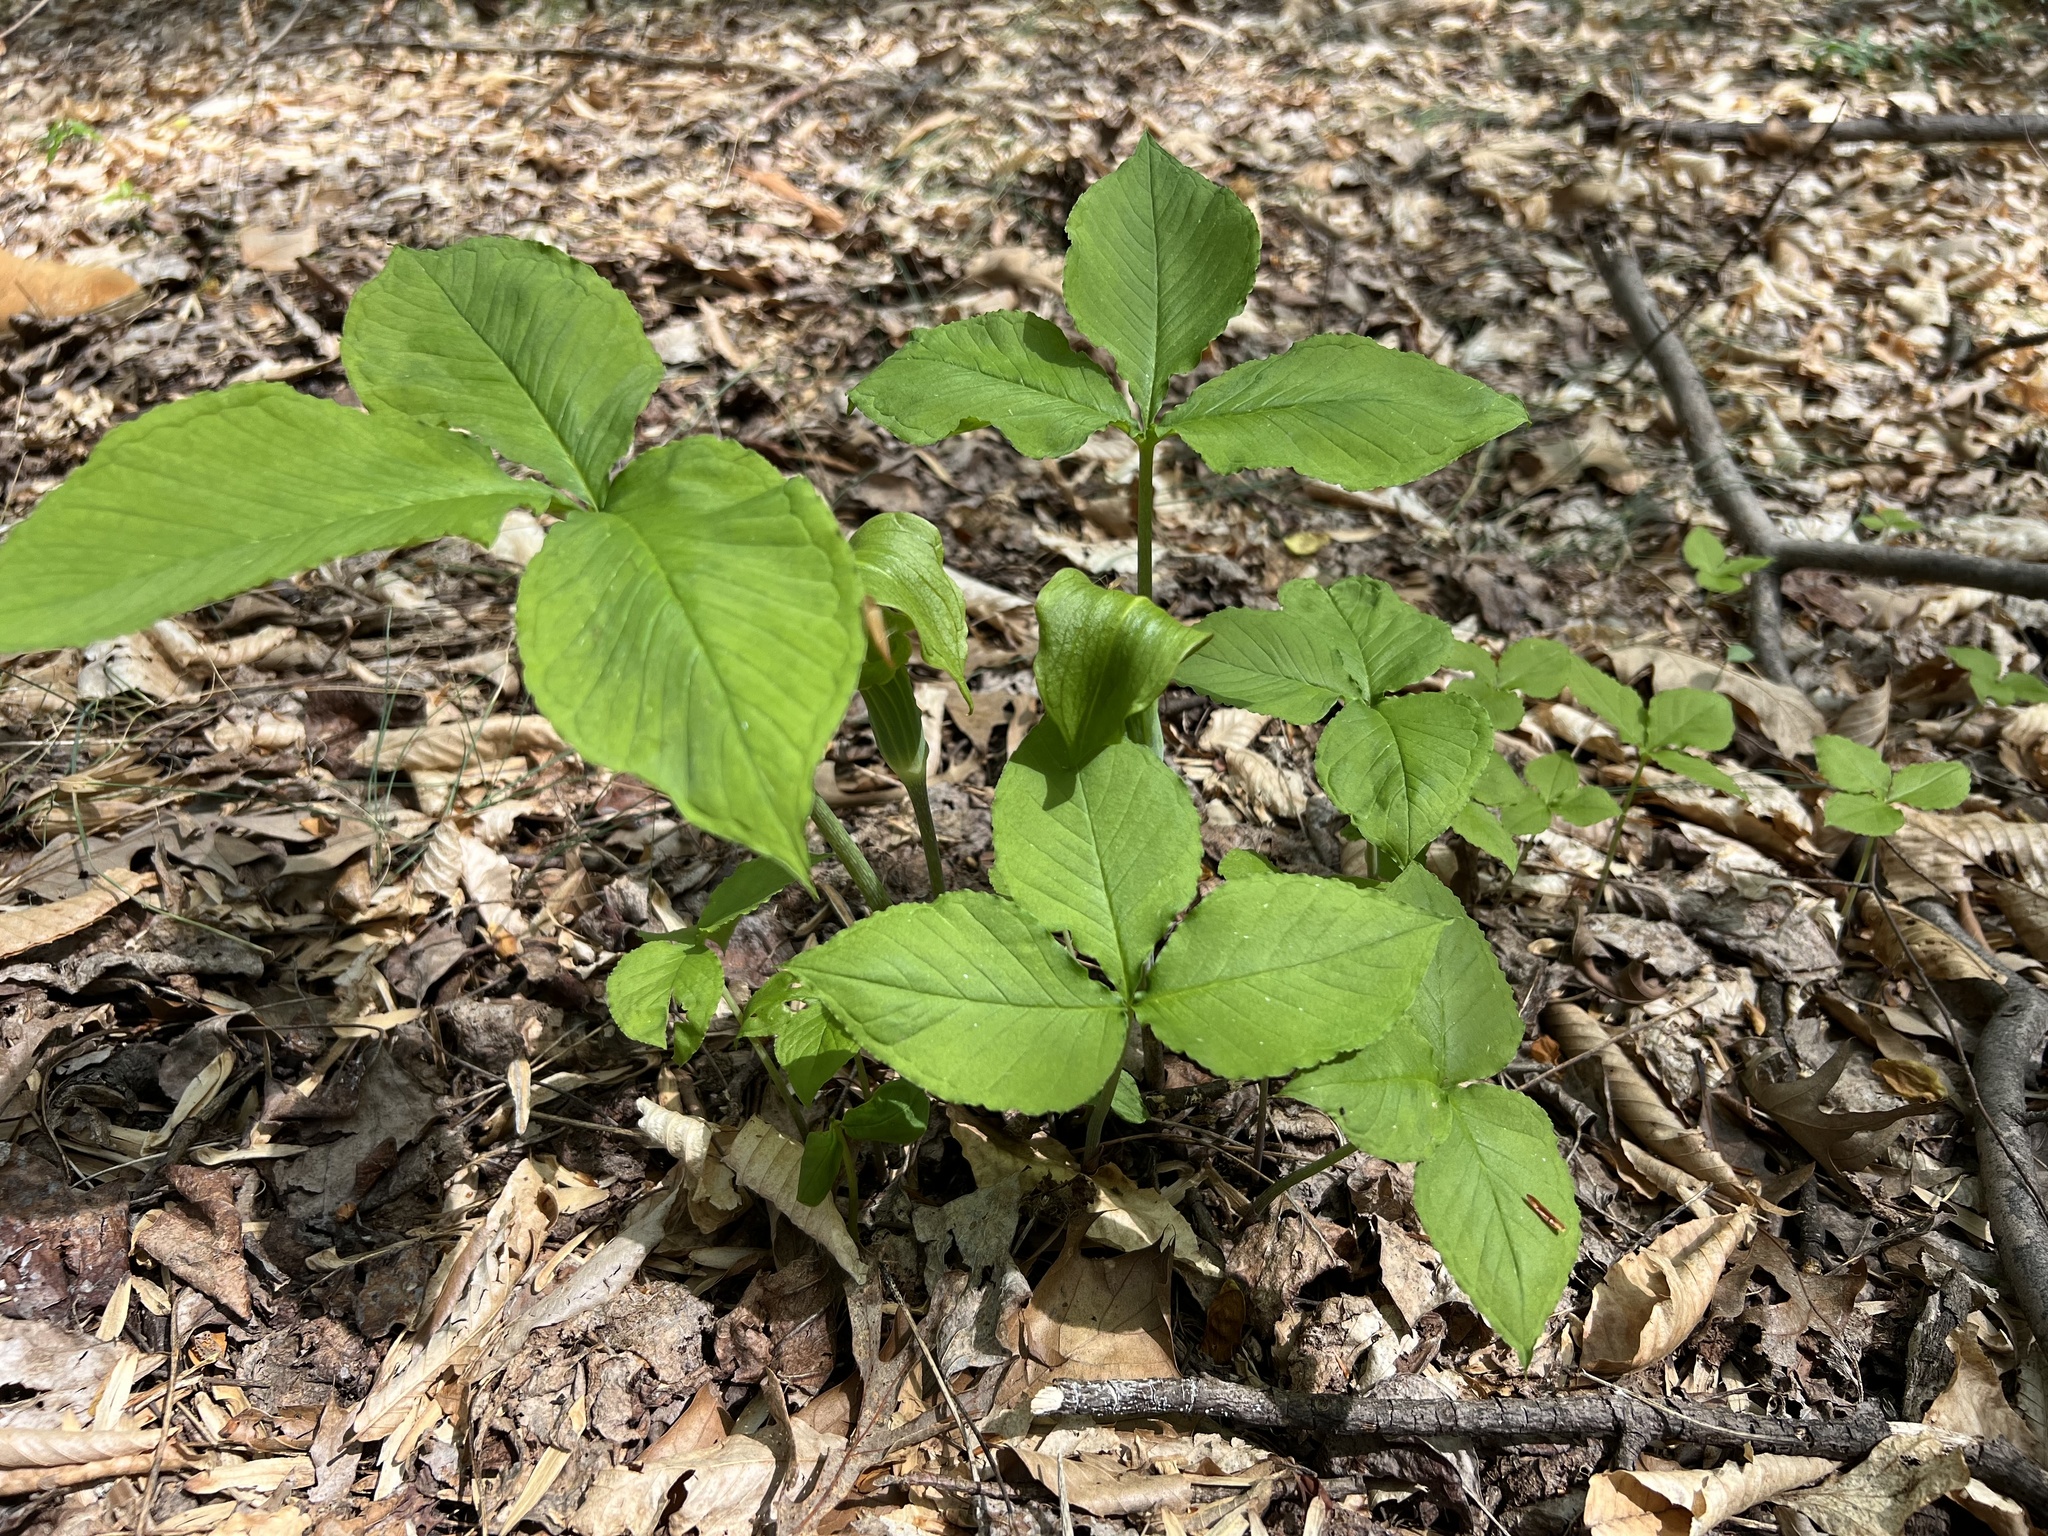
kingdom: Plantae
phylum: Tracheophyta
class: Liliopsida
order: Alismatales
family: Araceae
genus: Arisaema
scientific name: Arisaema triphyllum
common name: Jack-in-the-pulpit
